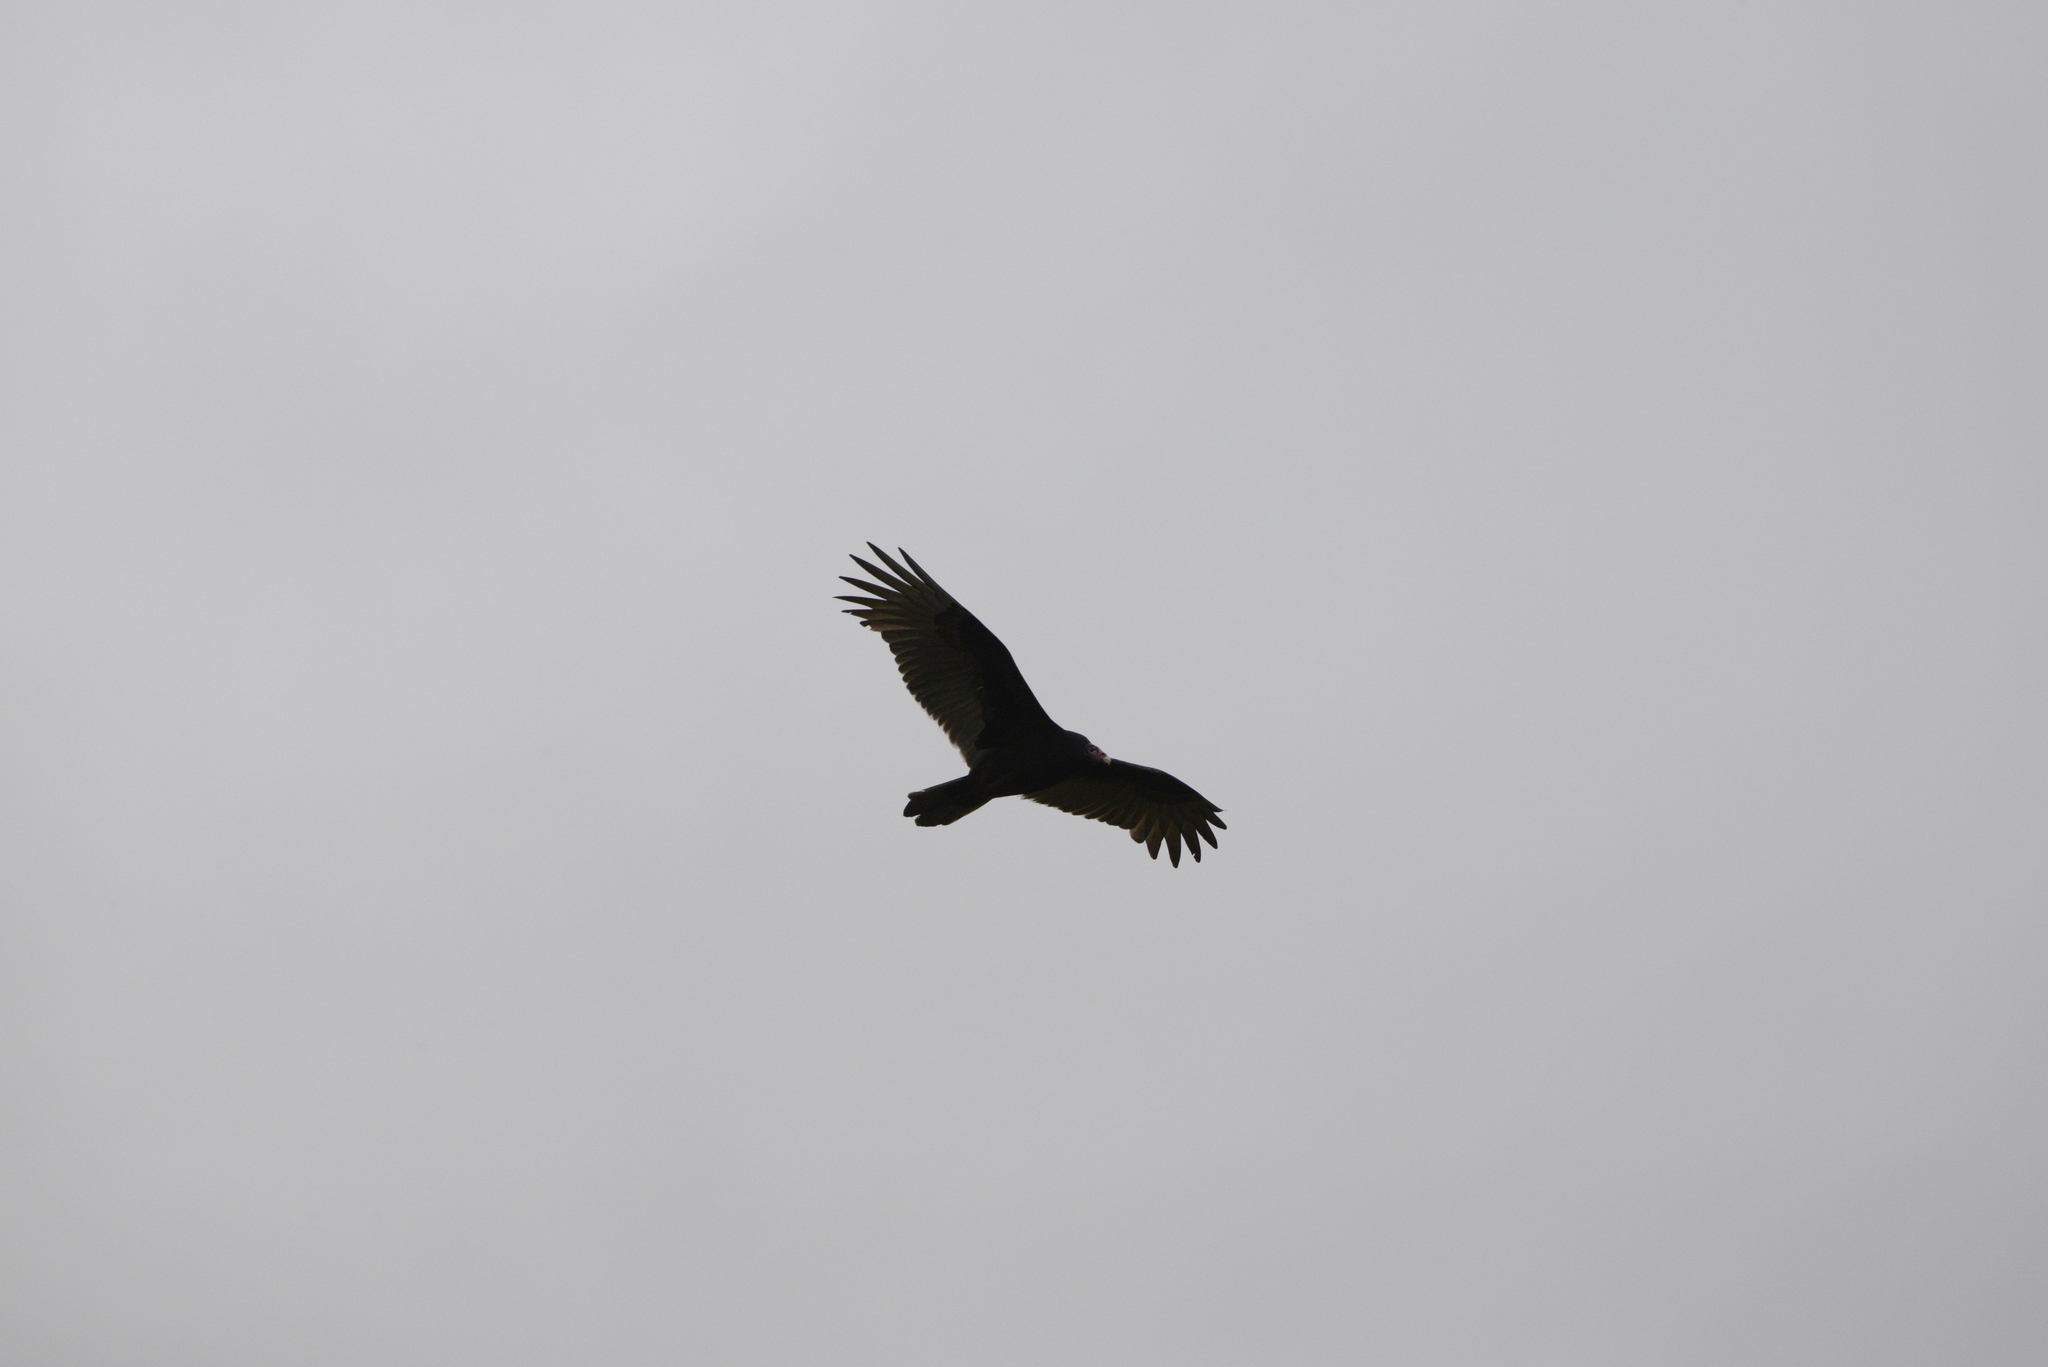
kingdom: Animalia
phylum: Chordata
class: Aves
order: Accipitriformes
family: Cathartidae
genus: Cathartes
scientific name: Cathartes aura
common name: Turkey vulture
